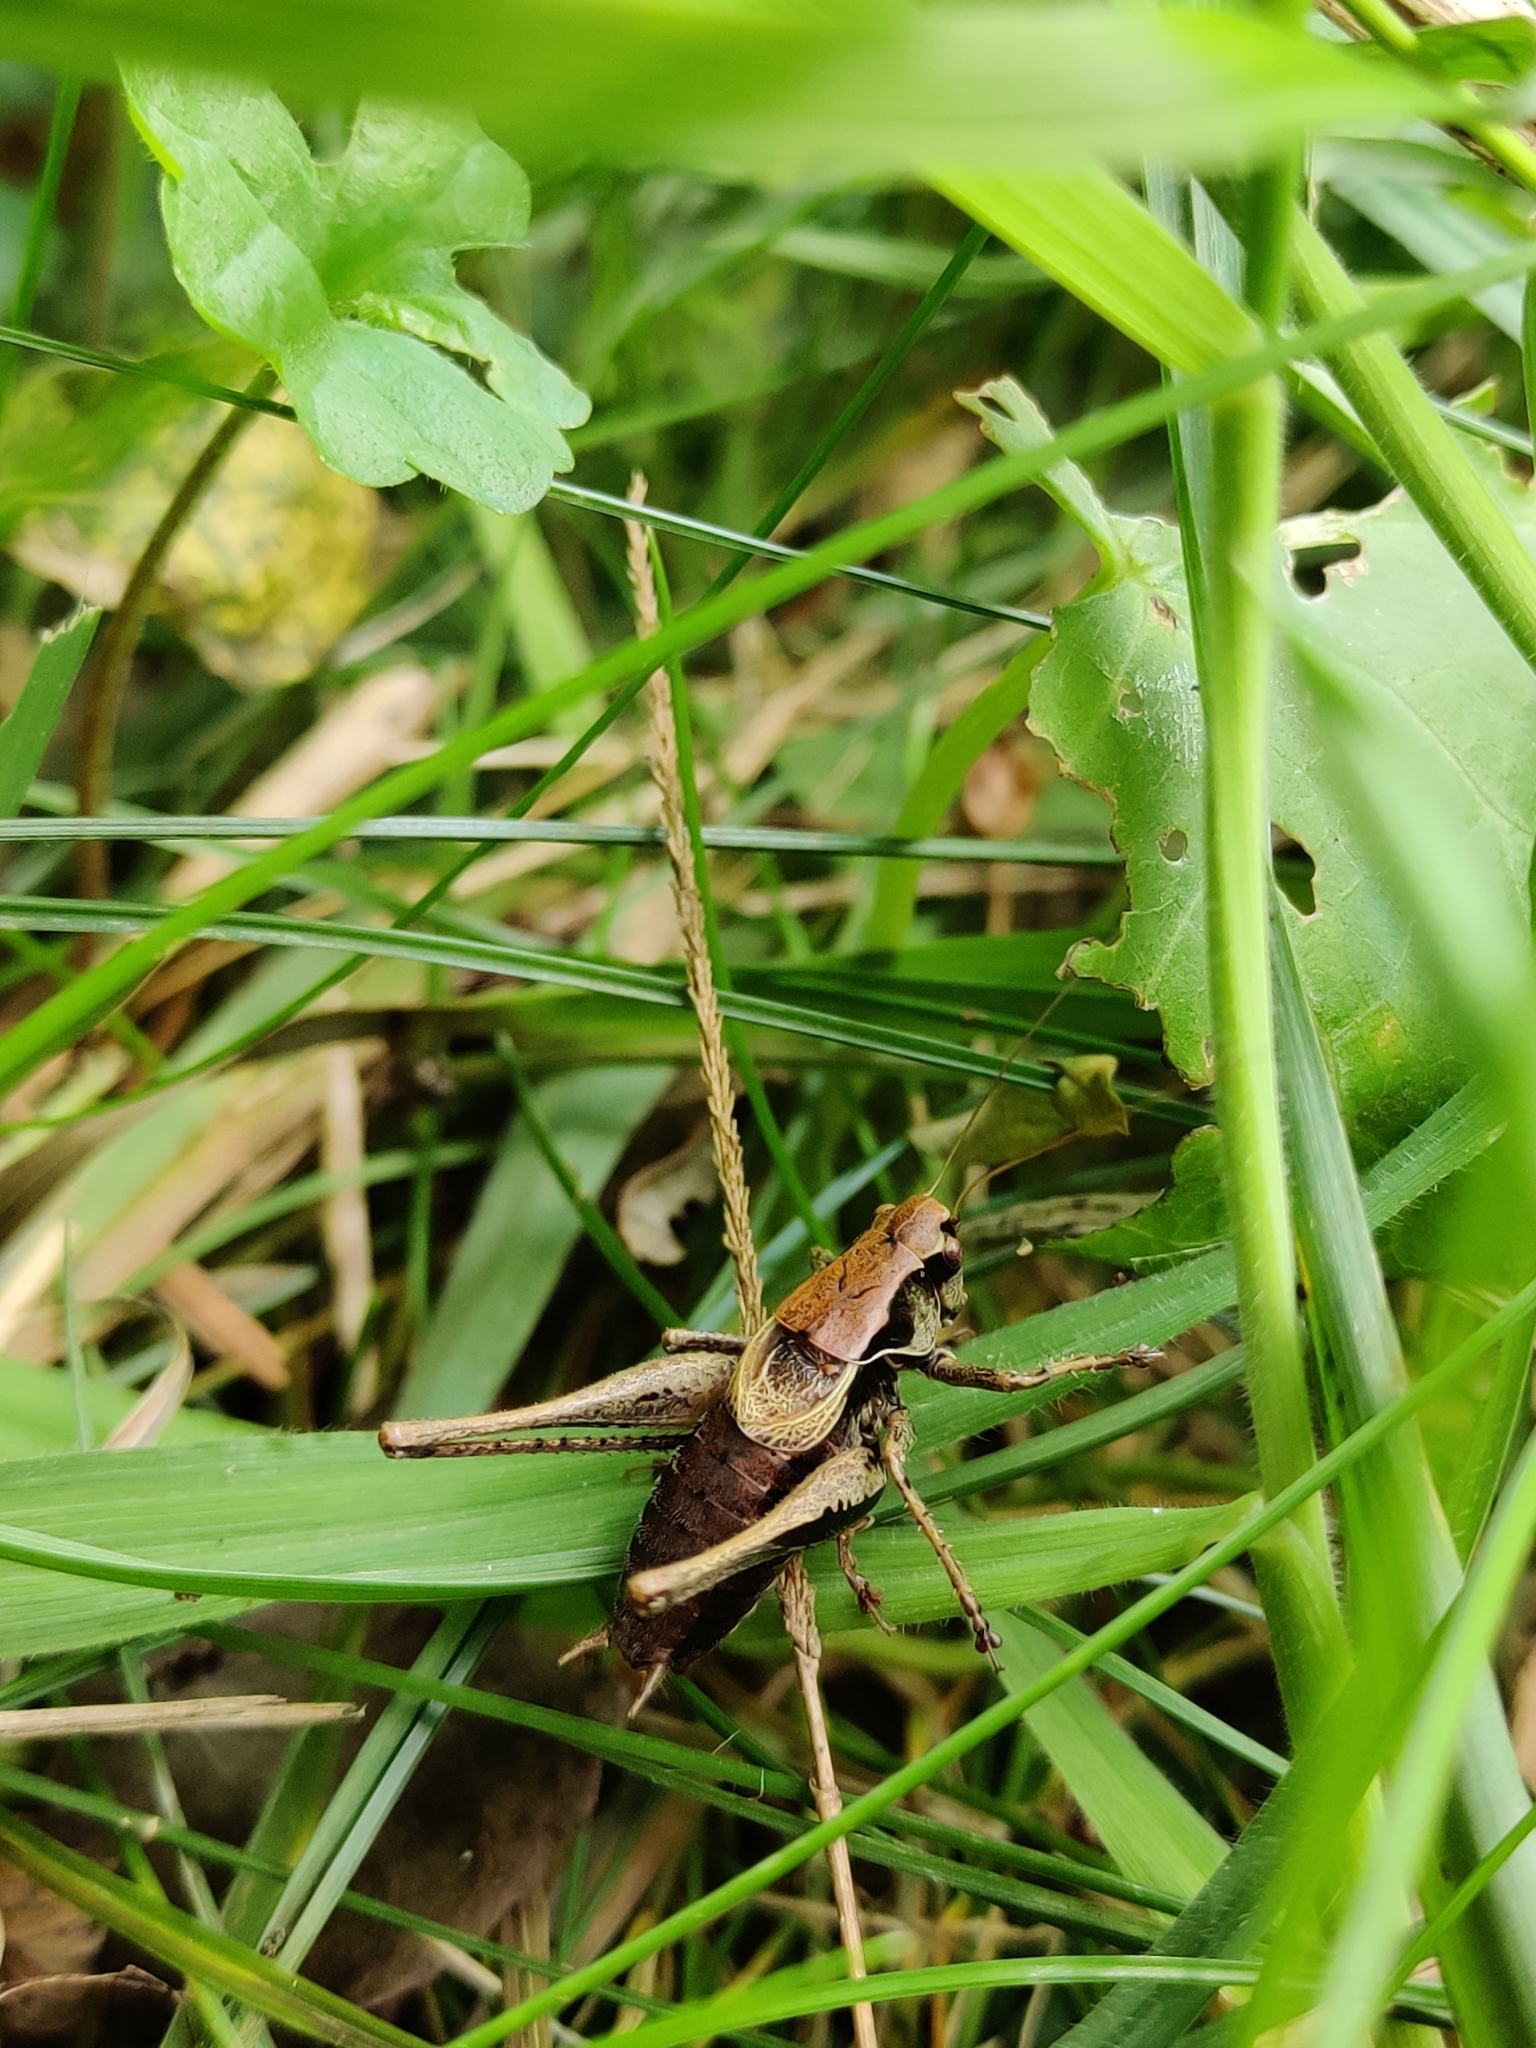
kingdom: Animalia
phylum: Arthropoda
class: Insecta
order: Orthoptera
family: Tettigoniidae
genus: Pholidoptera
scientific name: Pholidoptera griseoaptera
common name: Dark bush-cricket
